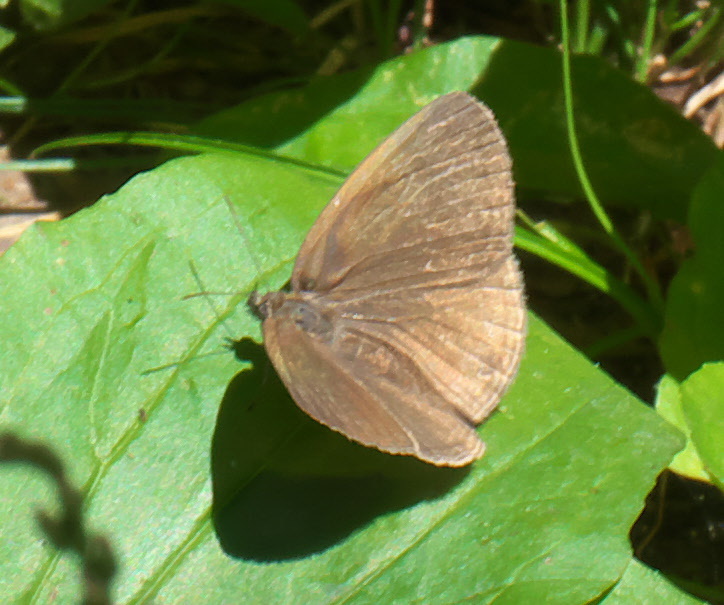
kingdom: Animalia
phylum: Arthropoda
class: Insecta
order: Lepidoptera
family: Nymphalidae
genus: Hermeuptychia
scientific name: Hermeuptychia hermes
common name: Hermes satyr
